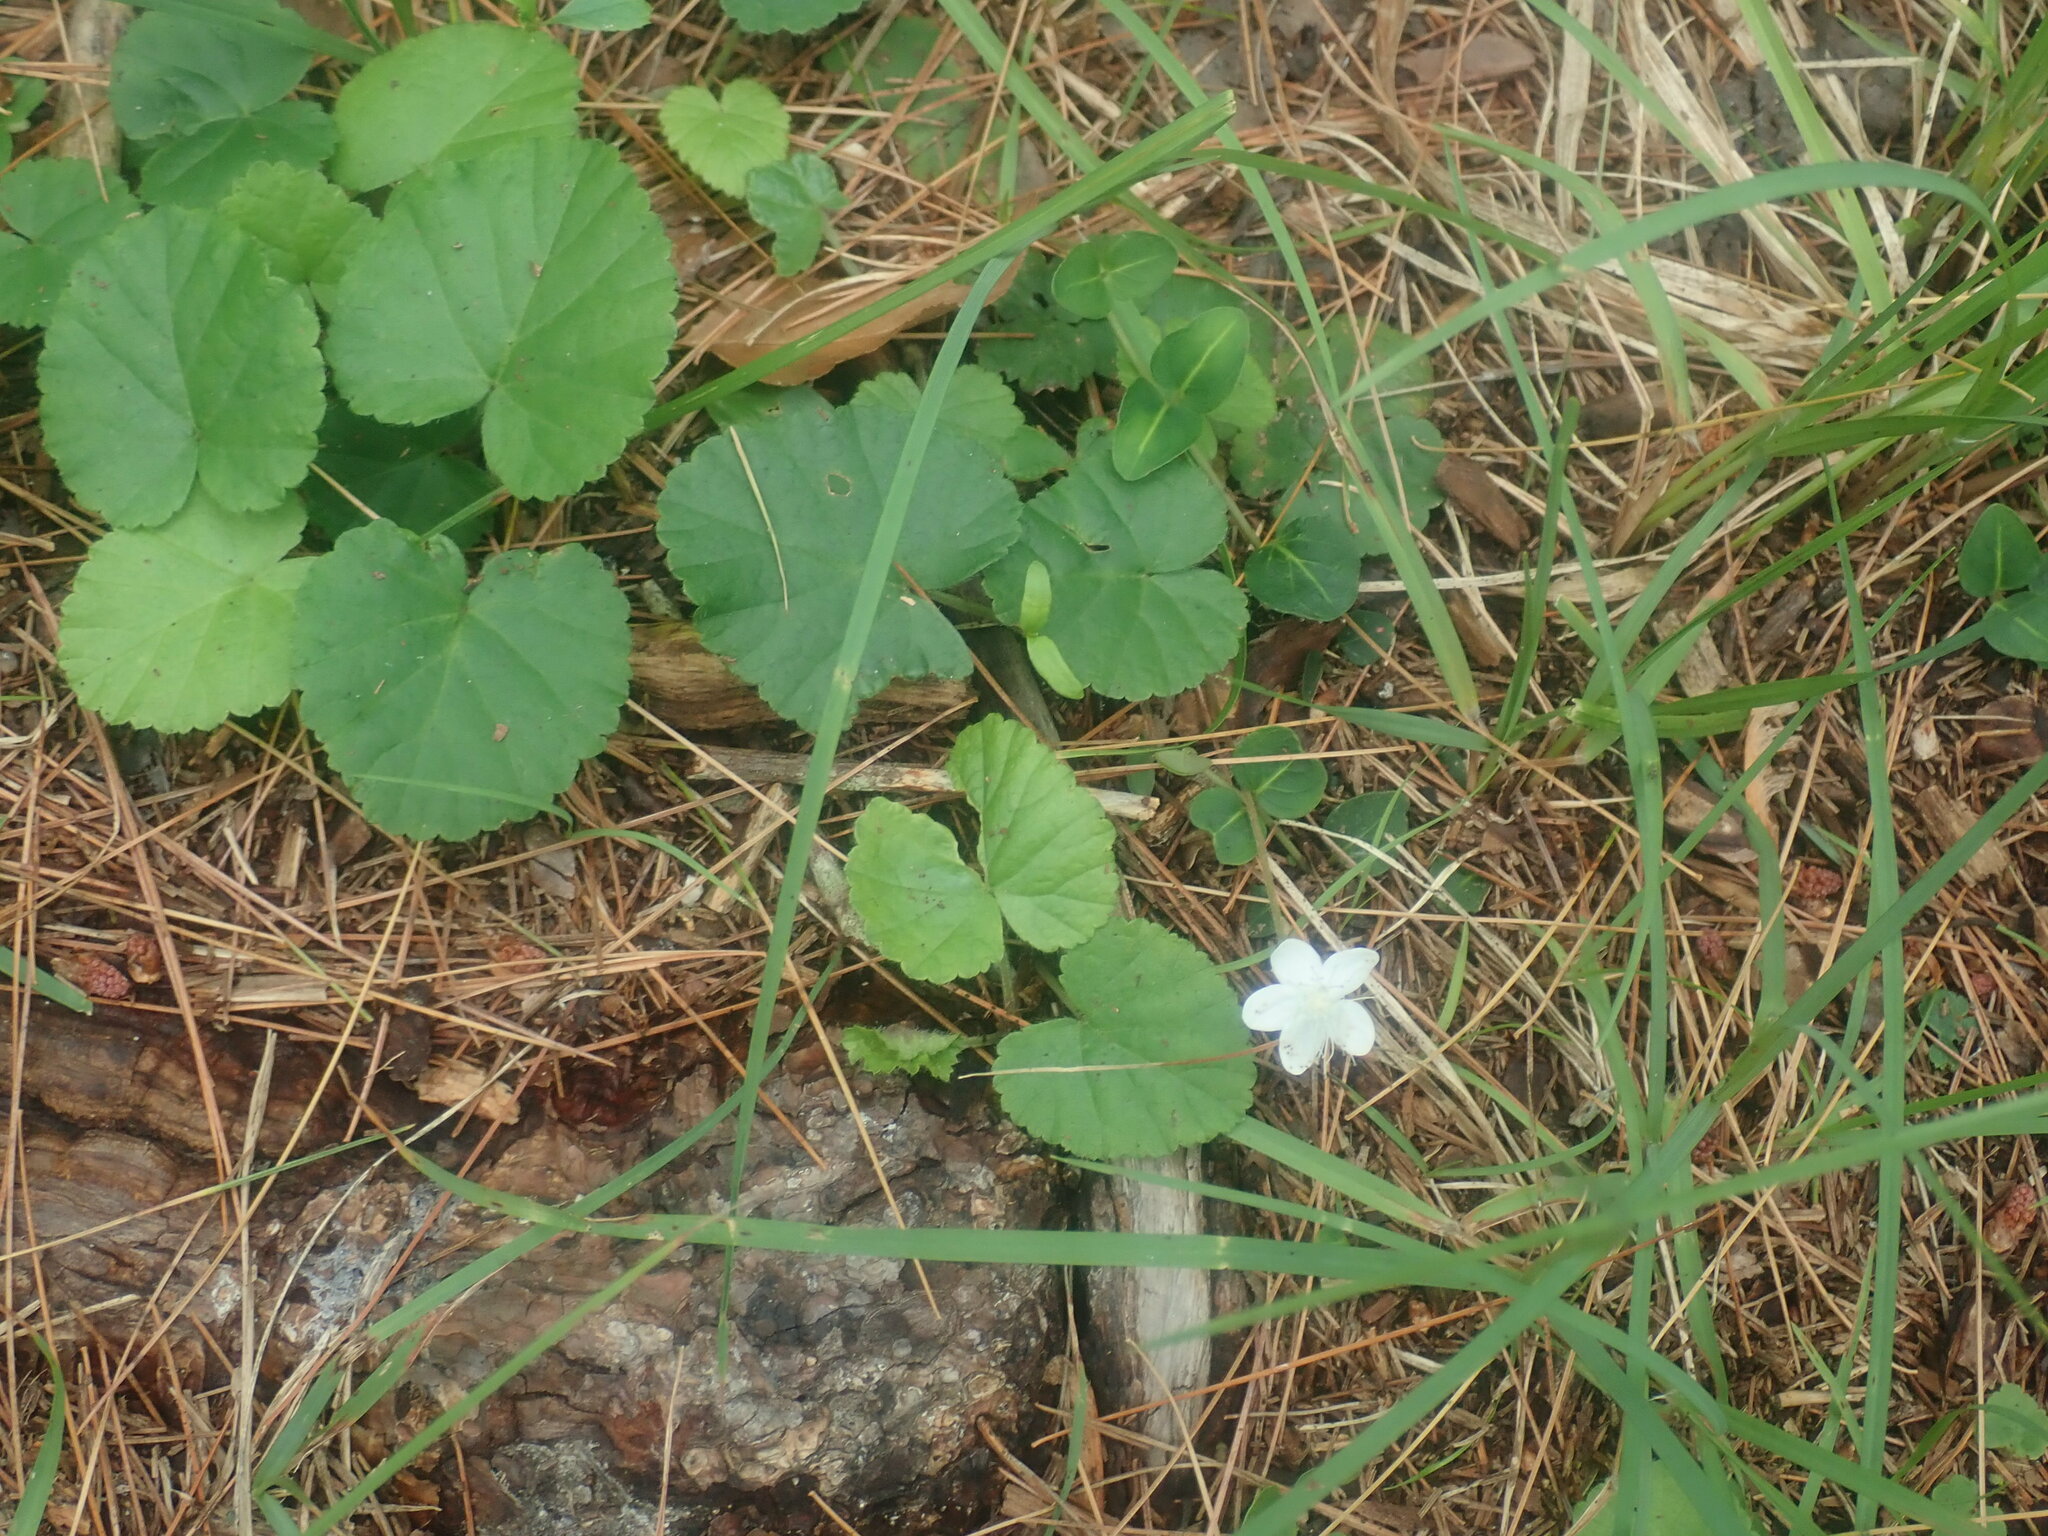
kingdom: Plantae
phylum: Tracheophyta
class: Magnoliopsida
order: Rosales
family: Rosaceae
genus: Dalibarda
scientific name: Dalibarda repens
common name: Dewdrop
